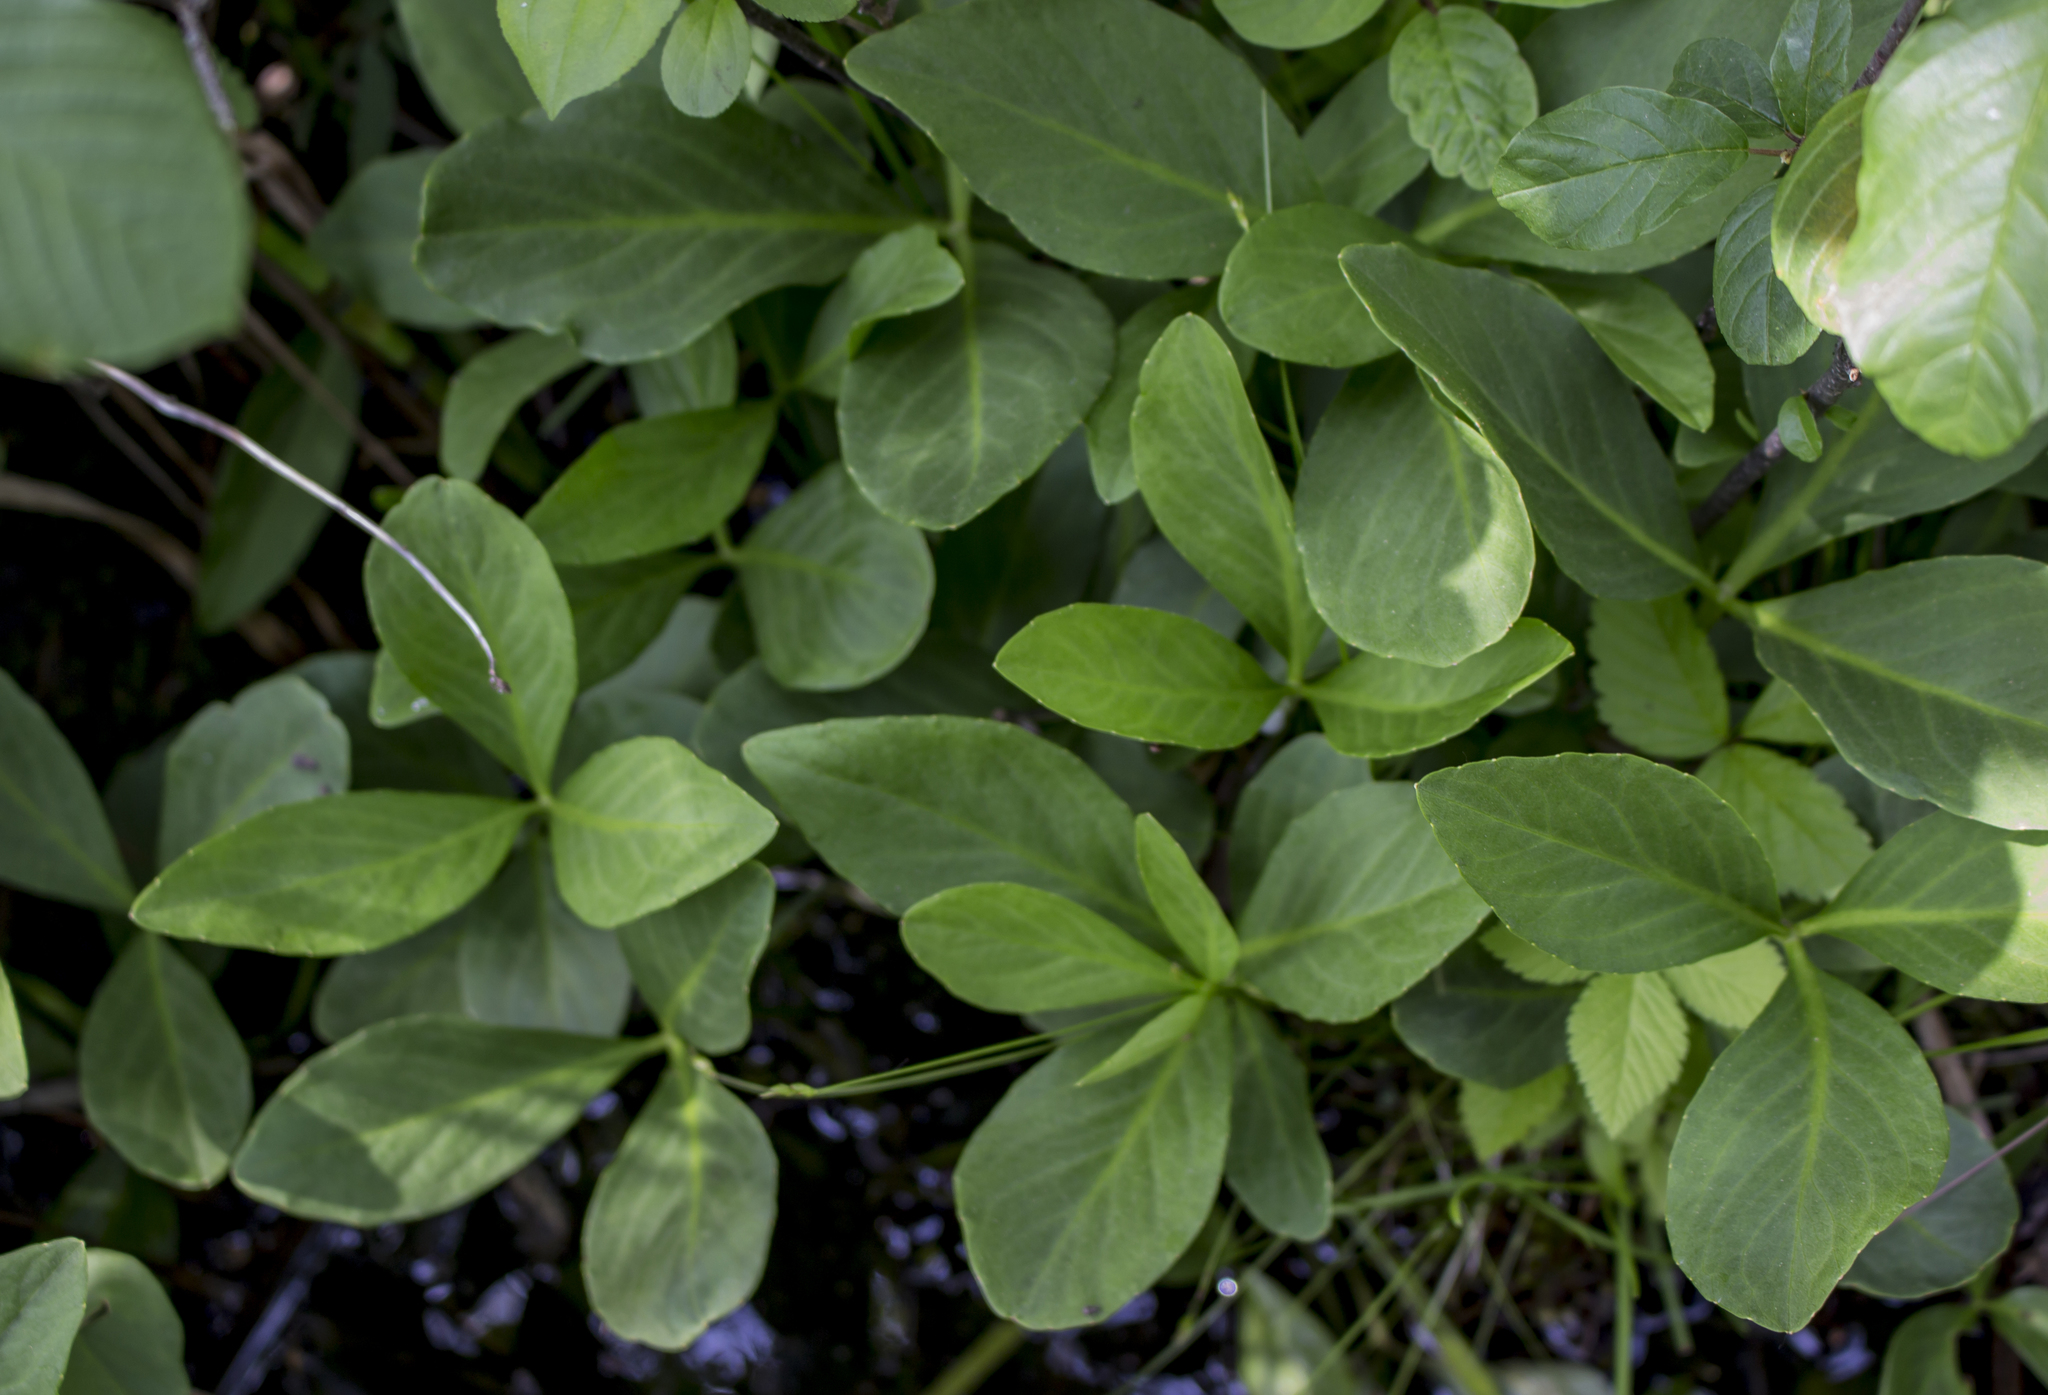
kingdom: Plantae
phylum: Tracheophyta
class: Magnoliopsida
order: Asterales
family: Menyanthaceae
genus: Menyanthes
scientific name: Menyanthes trifoliata
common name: Bogbean
